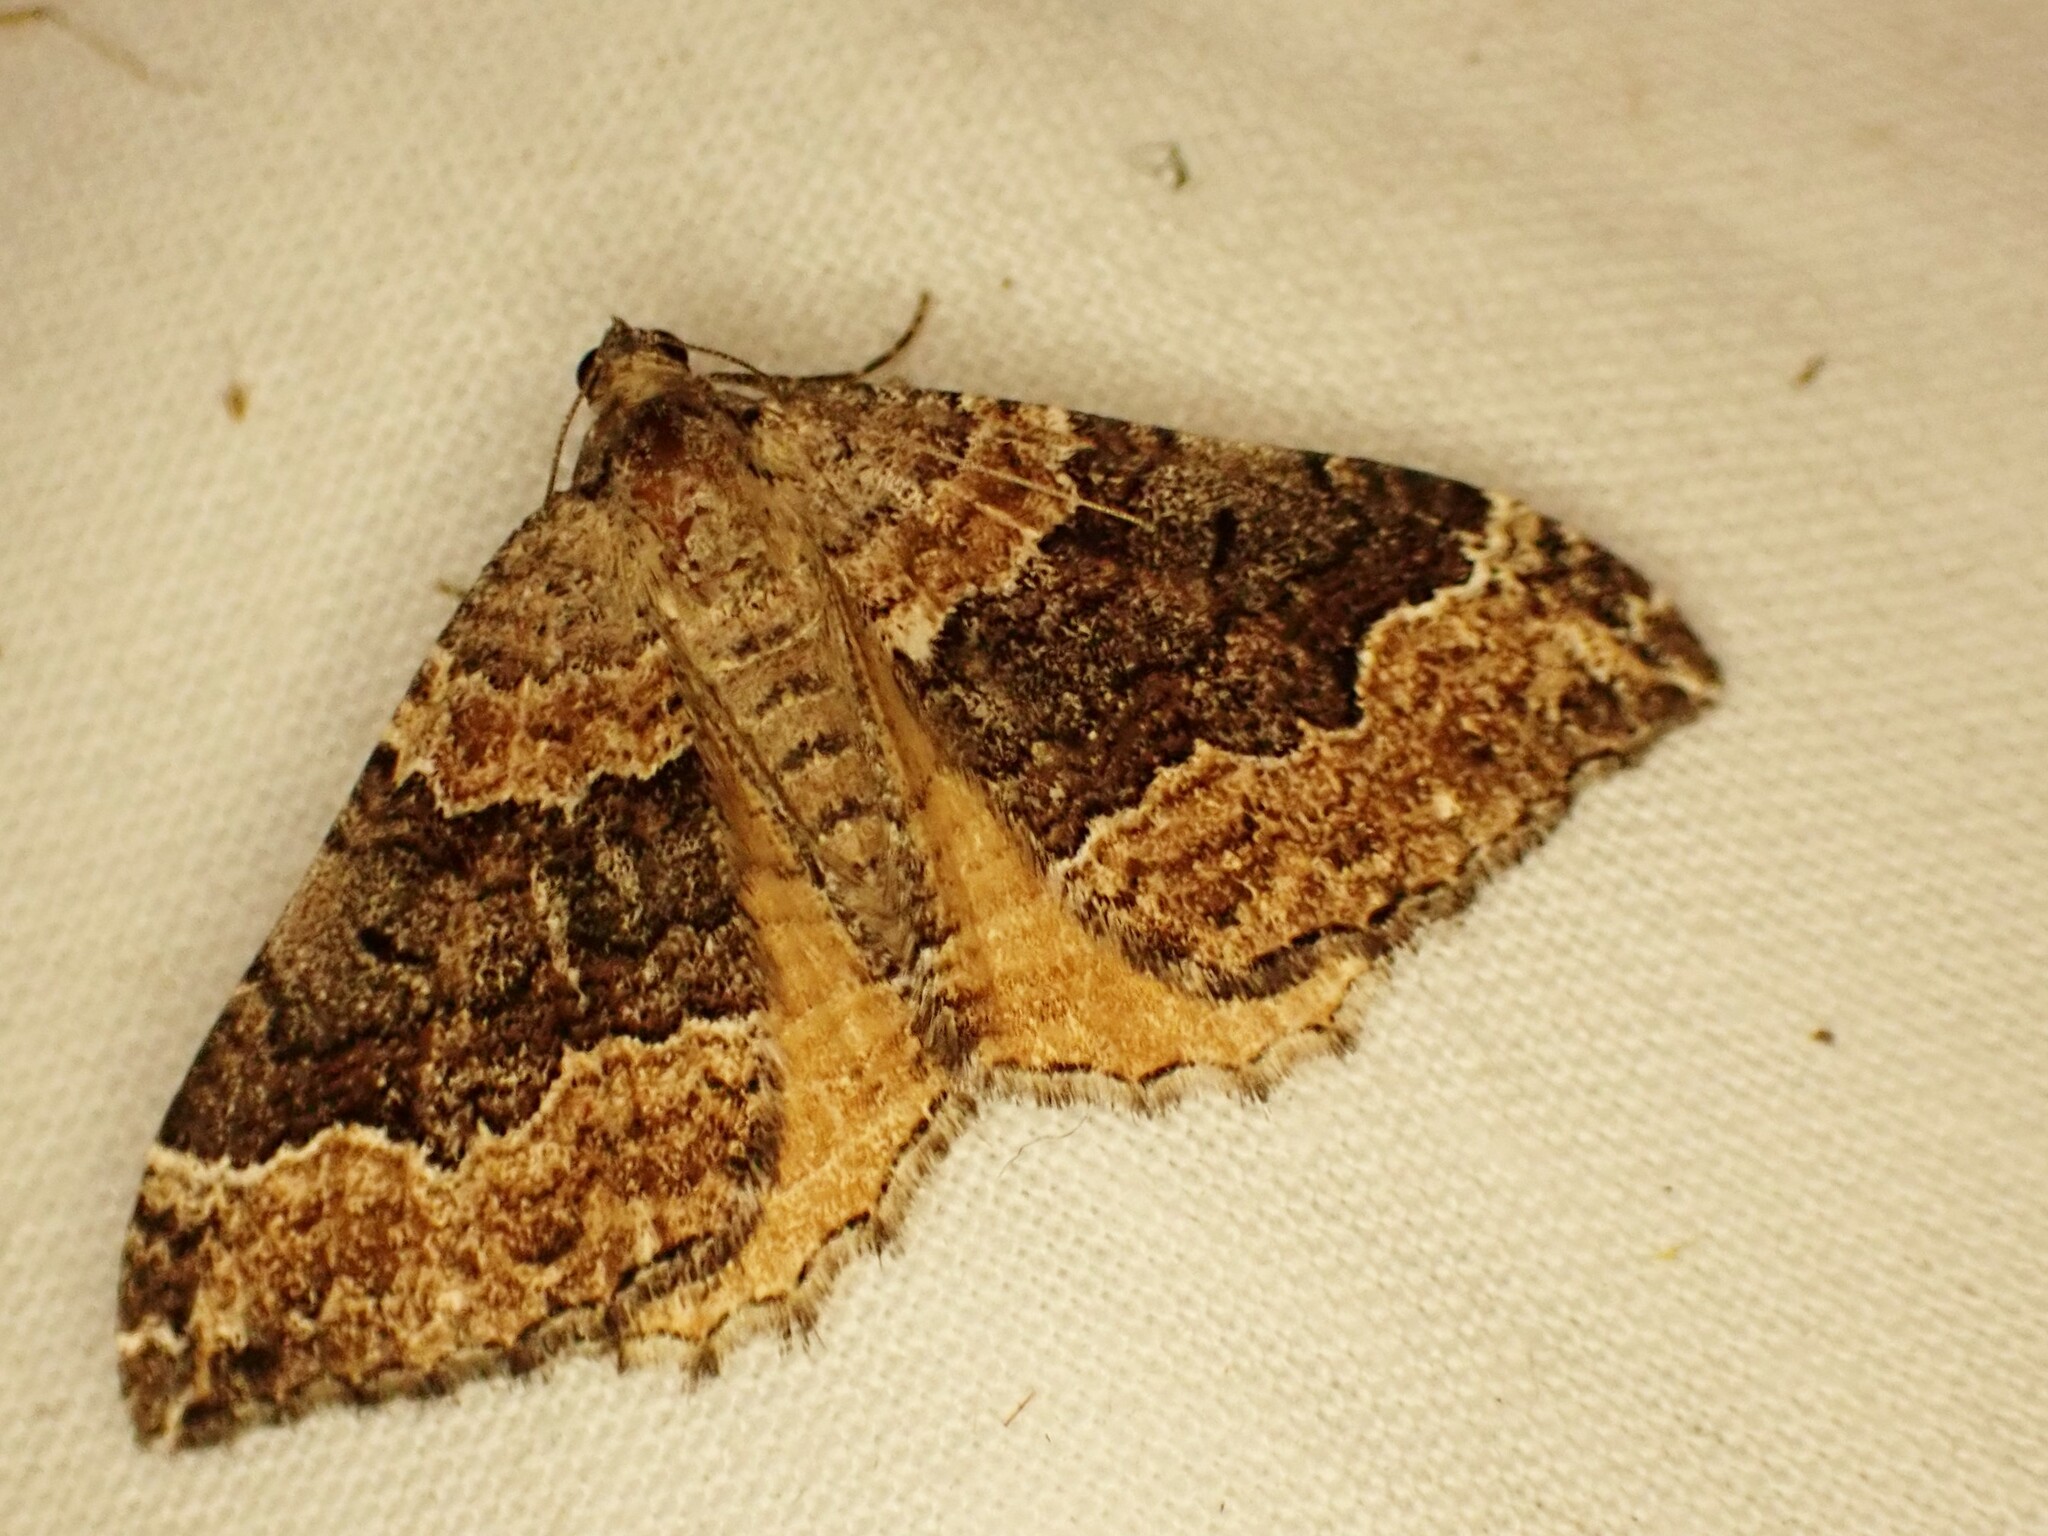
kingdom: Animalia
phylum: Arthropoda
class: Insecta
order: Lepidoptera
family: Geometridae
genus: Hydriomena
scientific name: Hydriomena deltoidata
